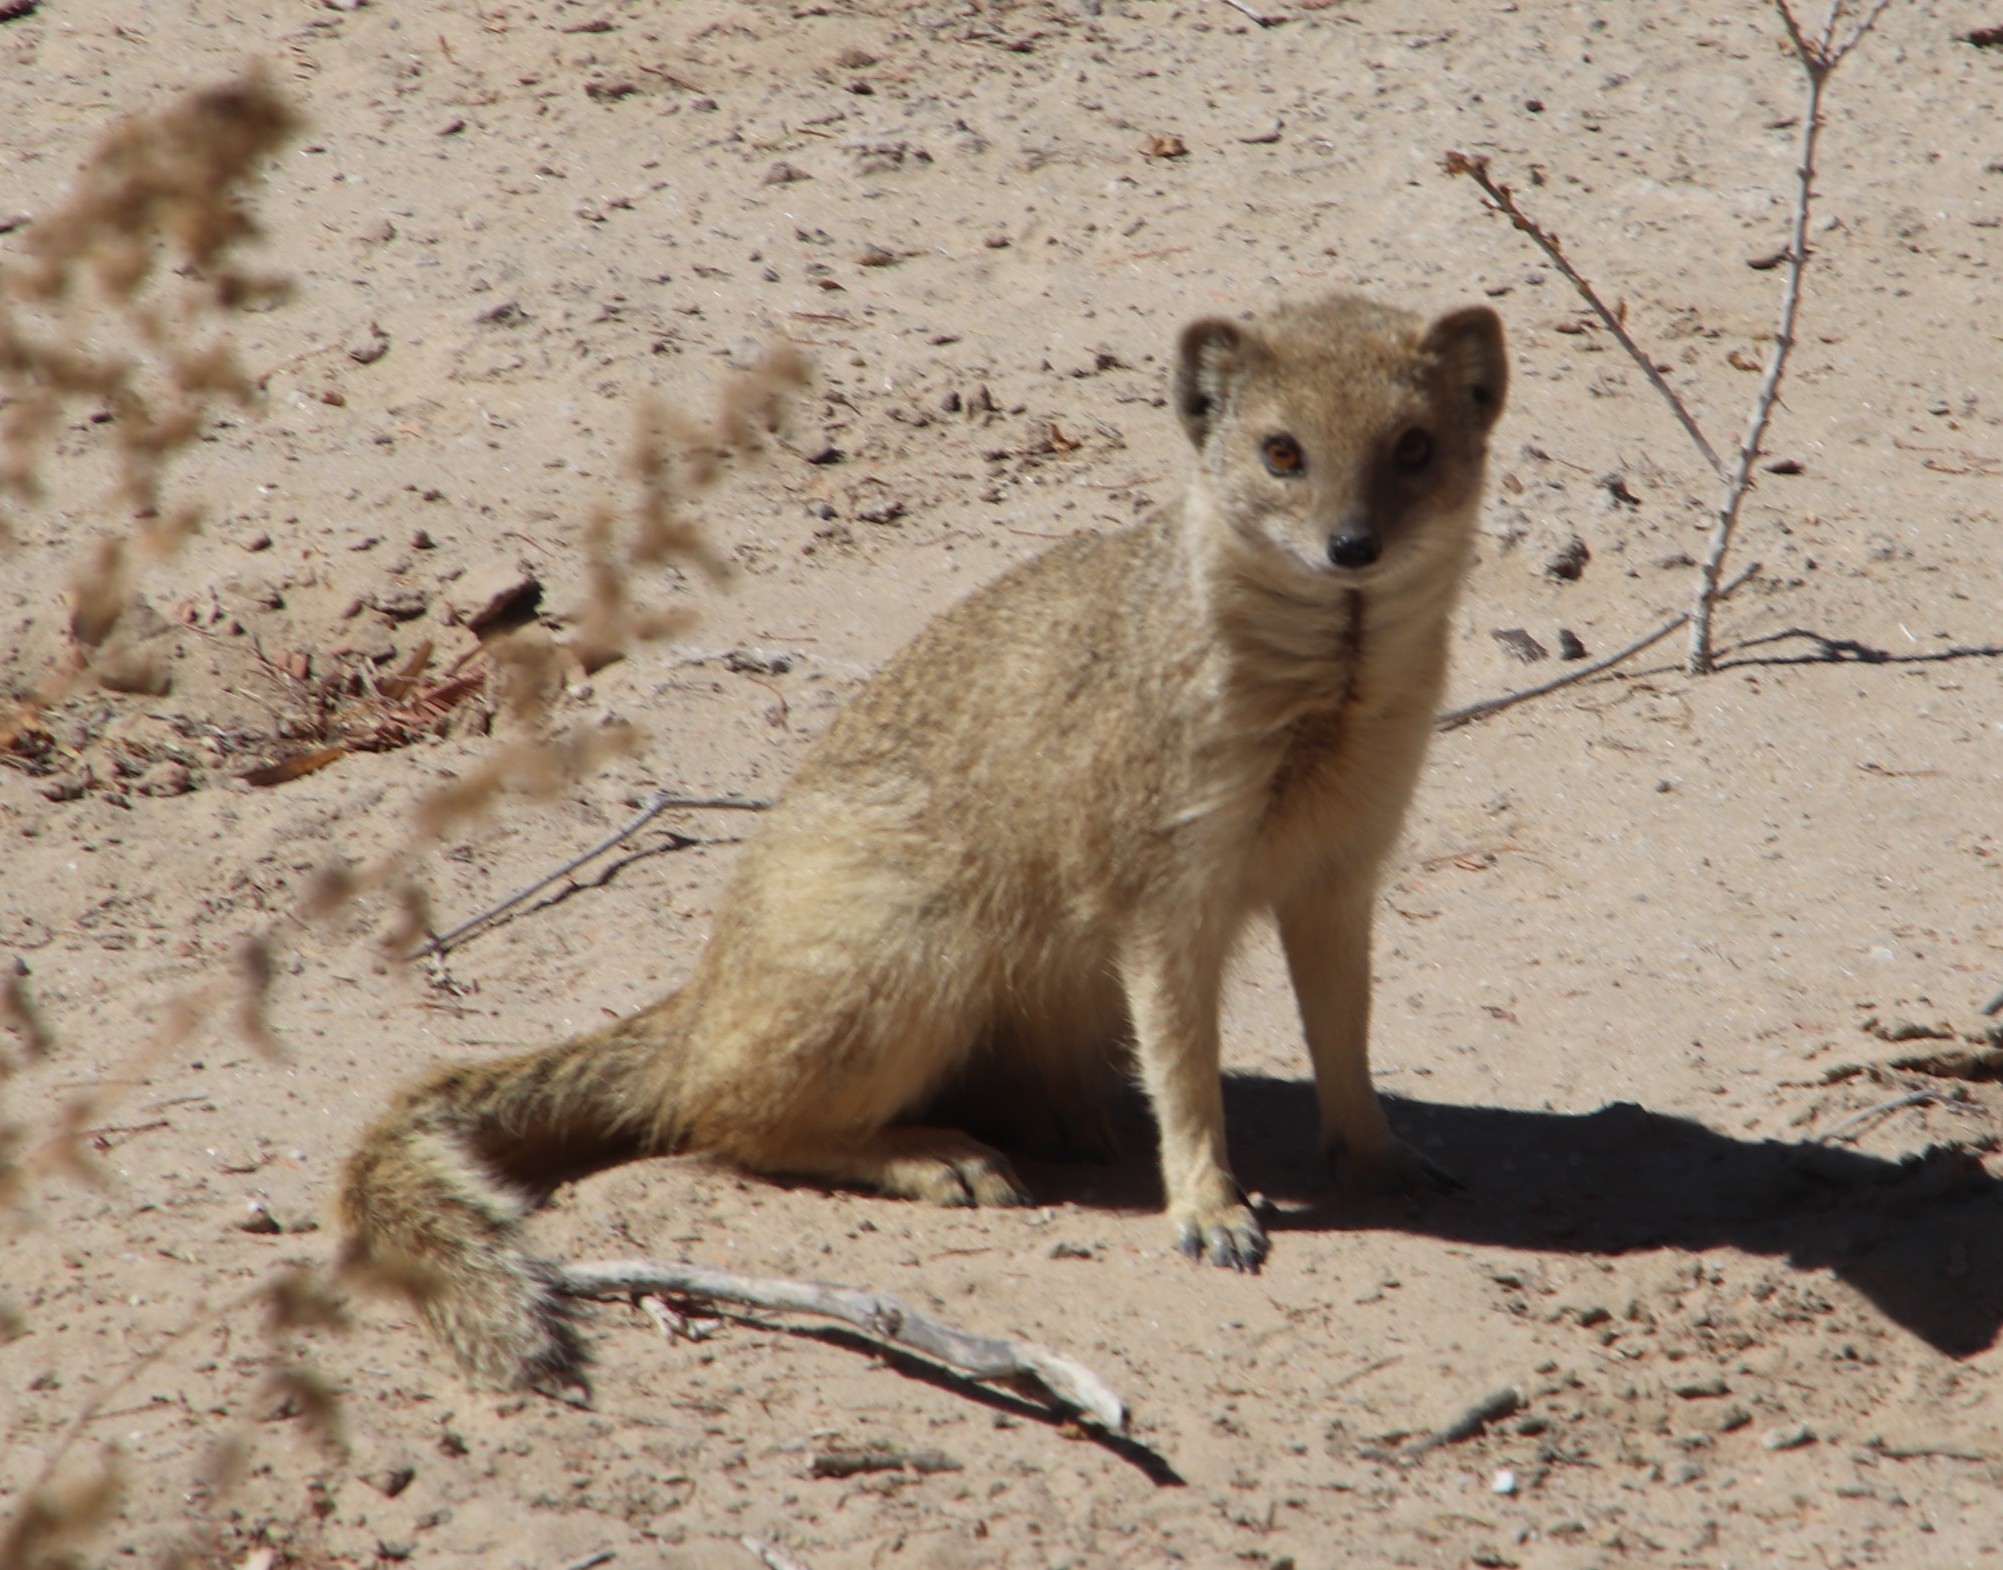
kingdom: Animalia
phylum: Chordata
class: Mammalia
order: Carnivora
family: Herpestidae
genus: Cynictis
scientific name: Cynictis penicillata
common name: Yellow mongoose
